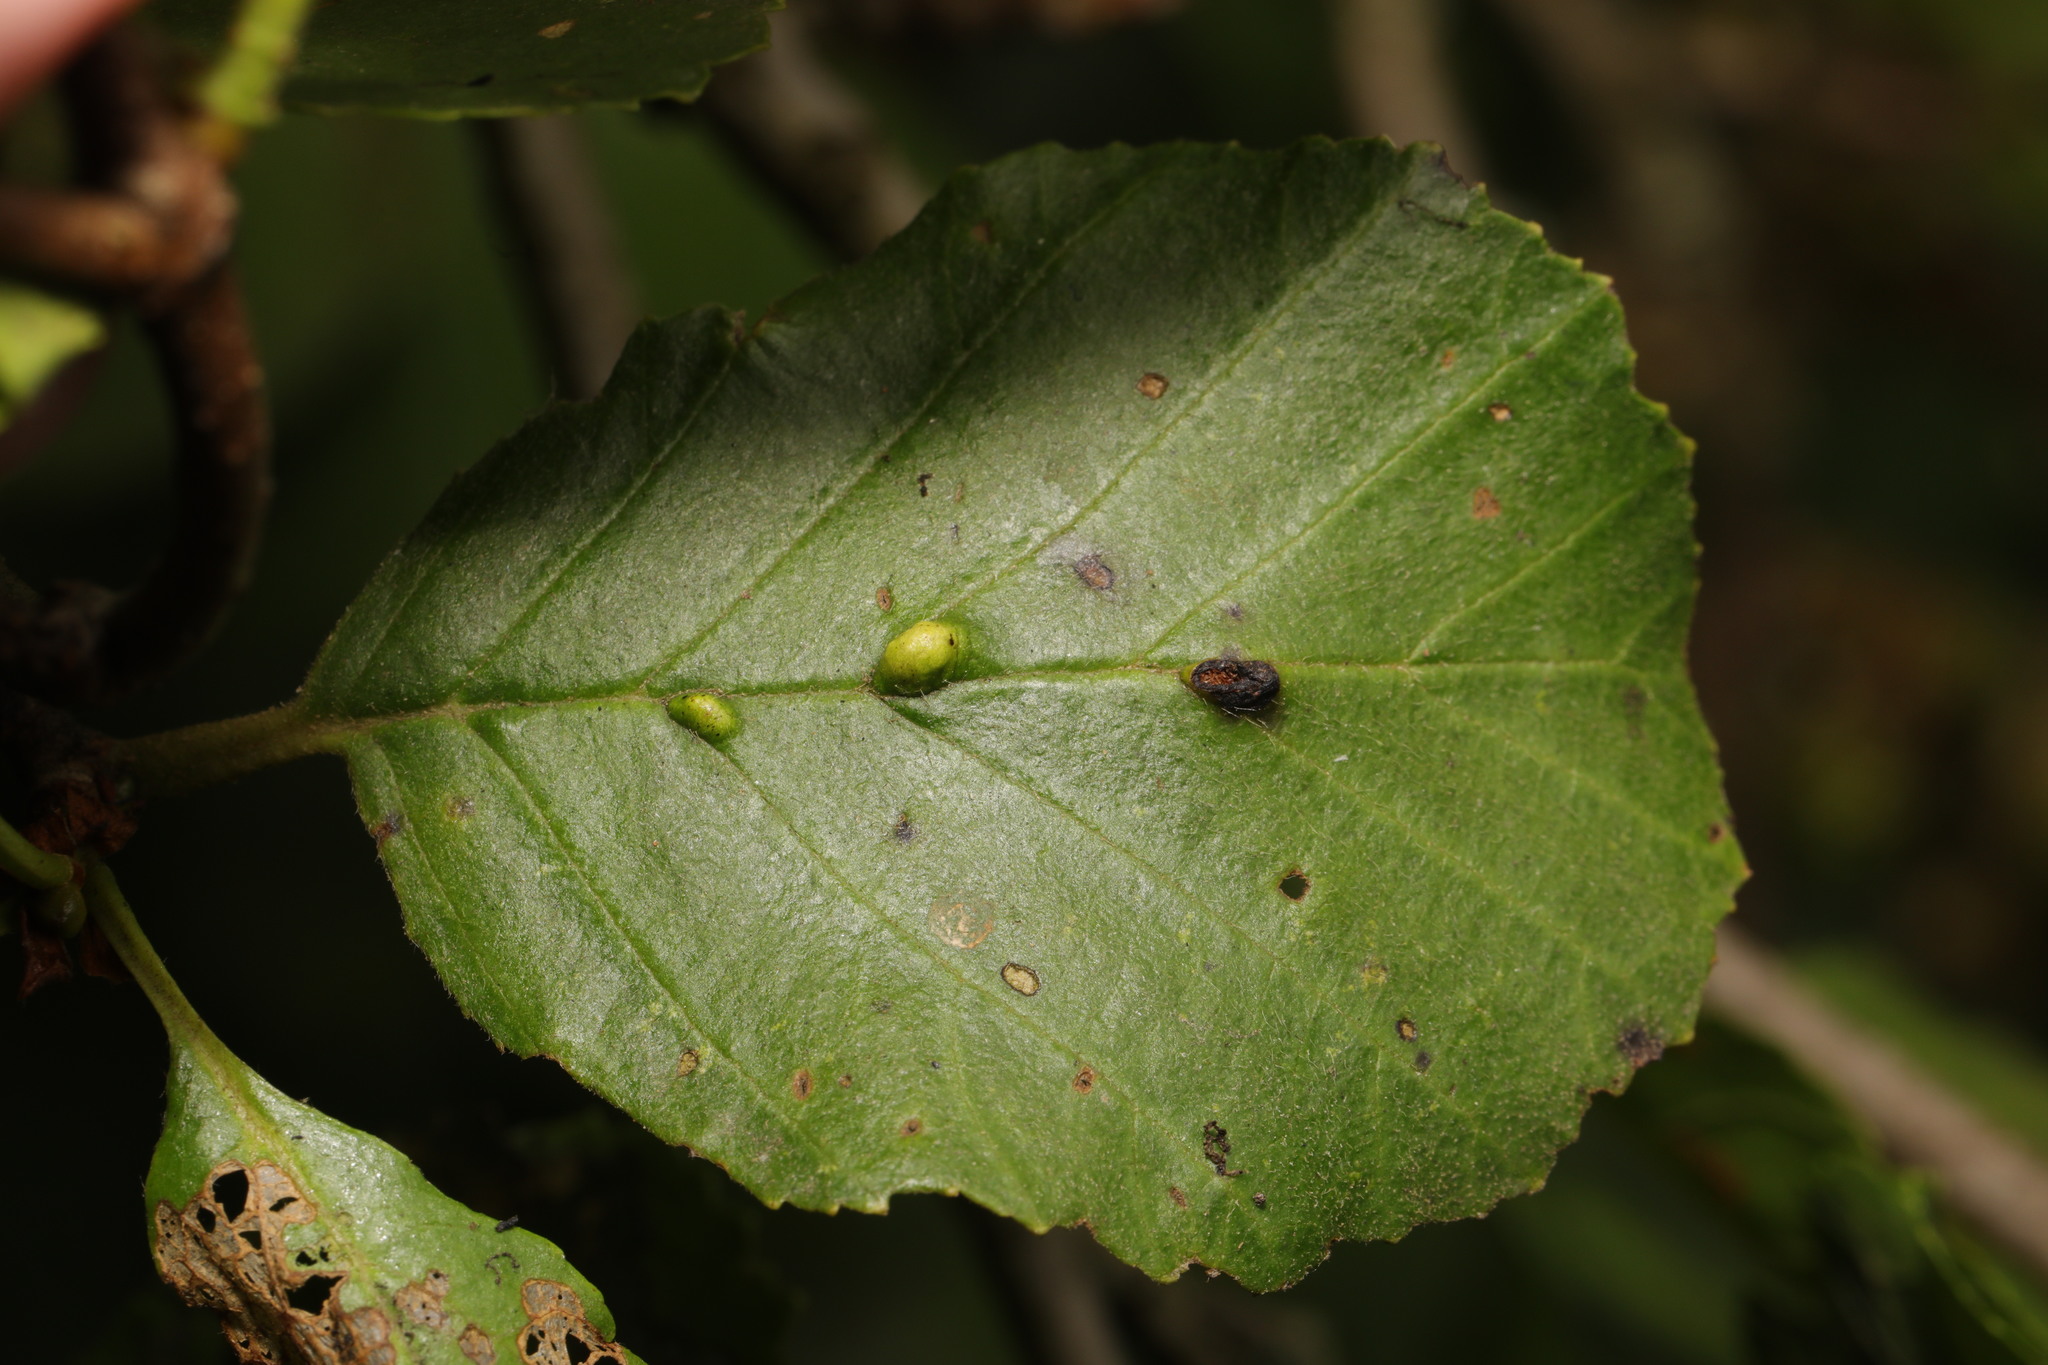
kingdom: Animalia
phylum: Arthropoda
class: Arachnida
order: Trombidiformes
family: Eriophyidae
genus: Eriophyes
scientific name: Eriophyes inangulis
